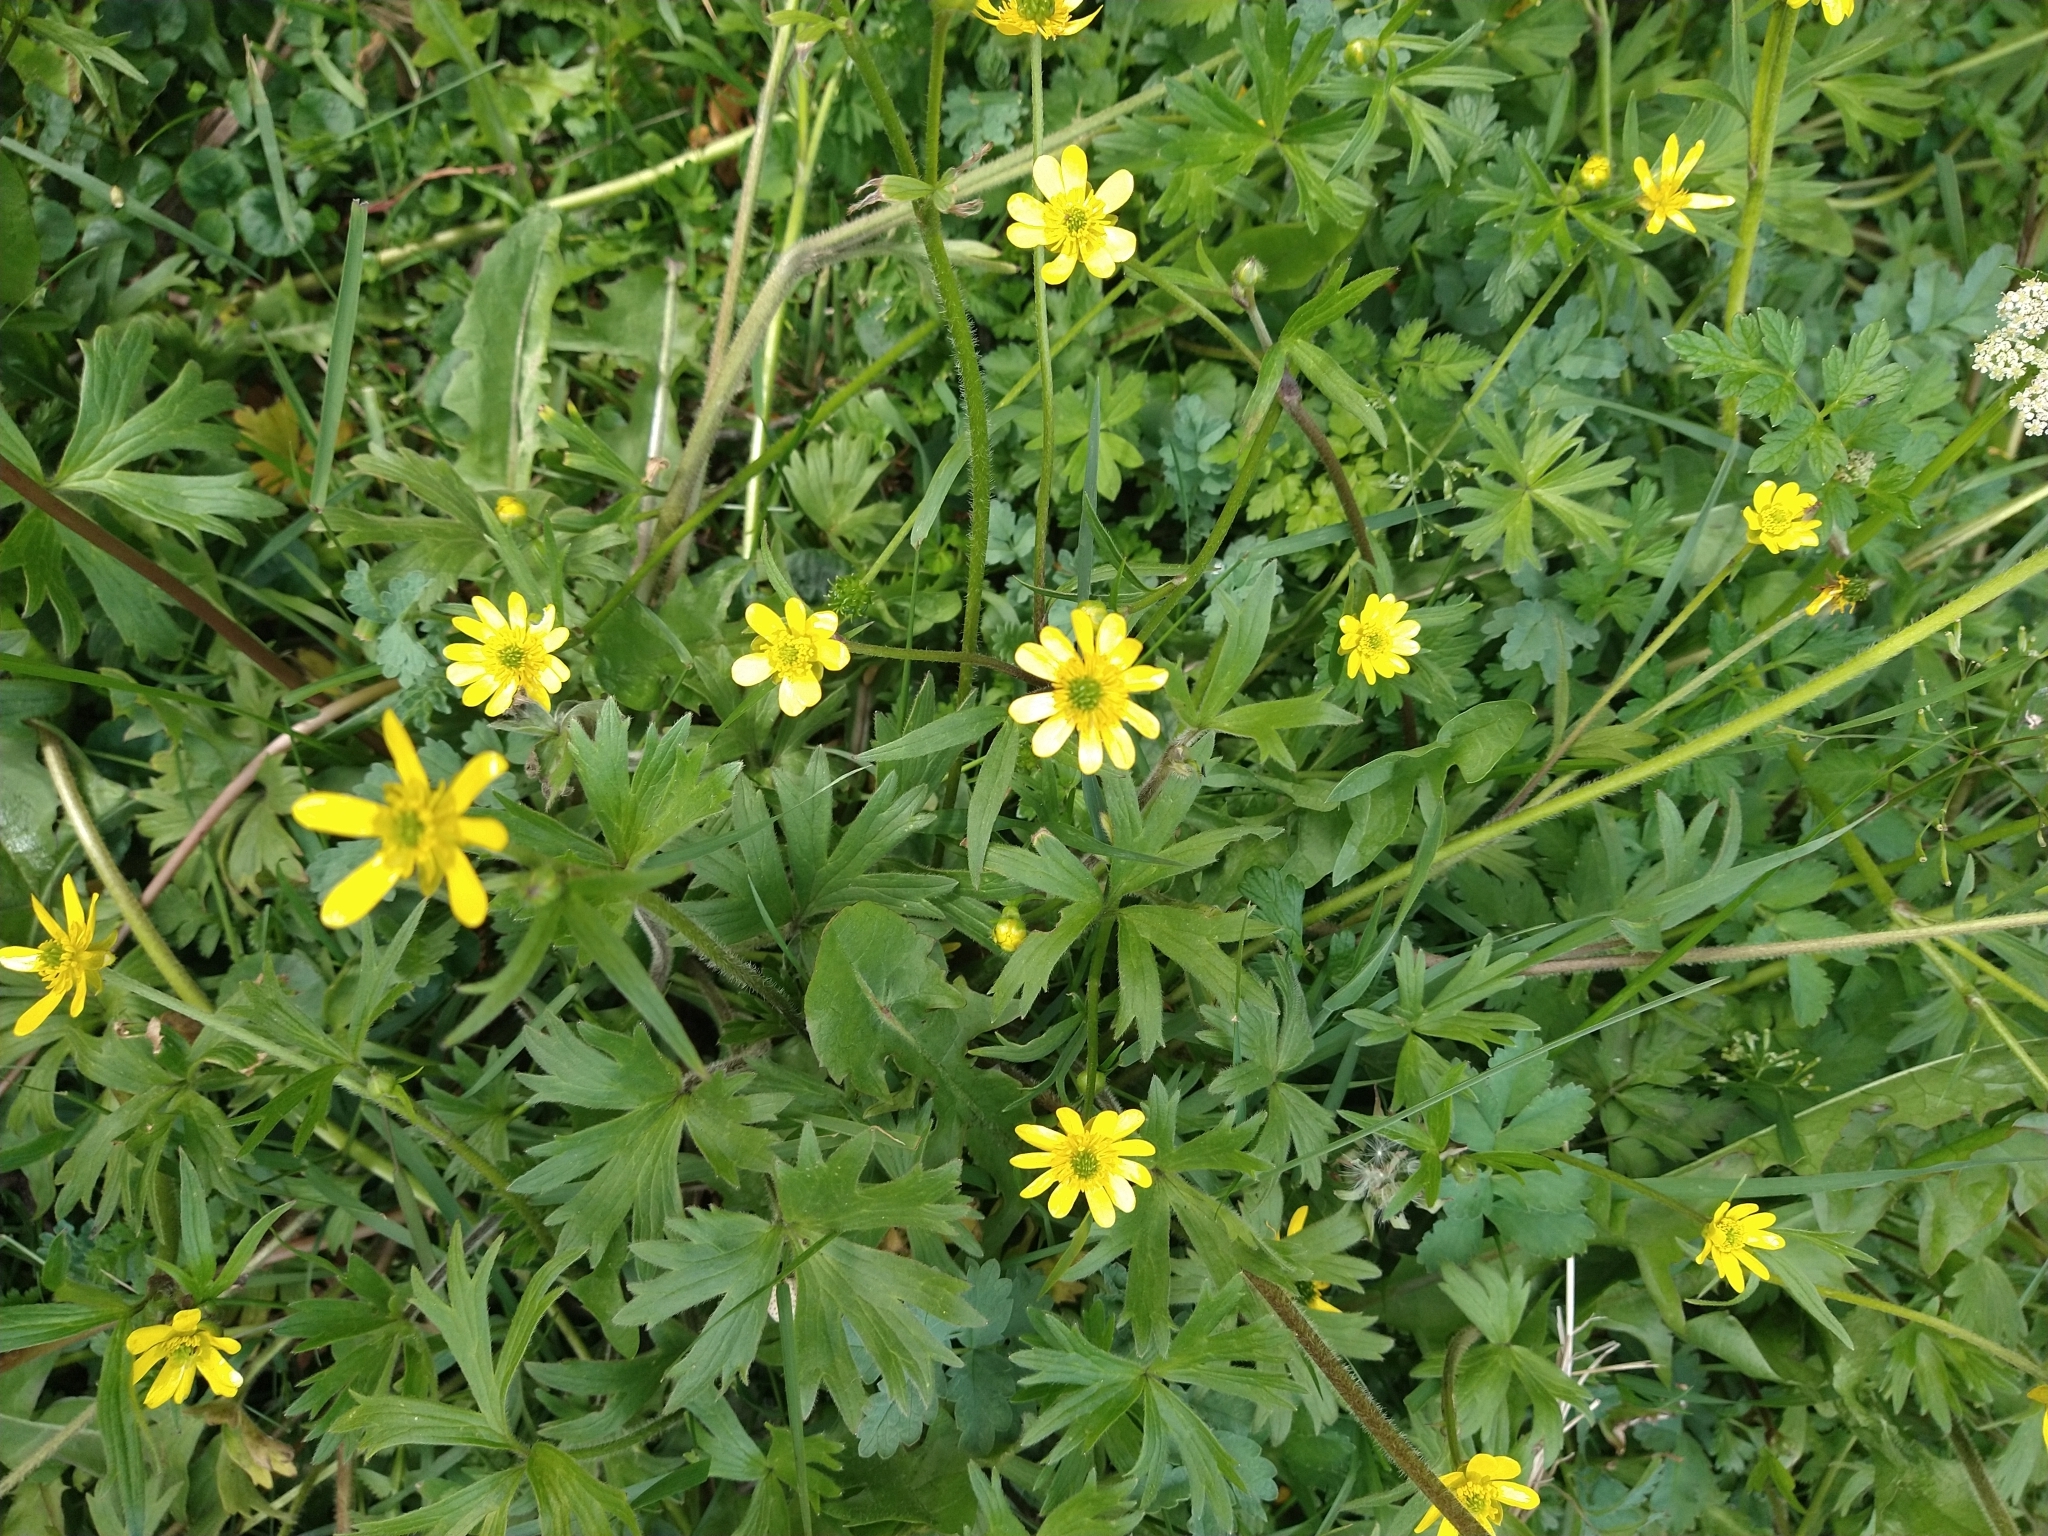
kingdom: Plantae
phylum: Tracheophyta
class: Magnoliopsida
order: Ranunculales
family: Ranunculaceae
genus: Ranunculus
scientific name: Ranunculus peduncularis
